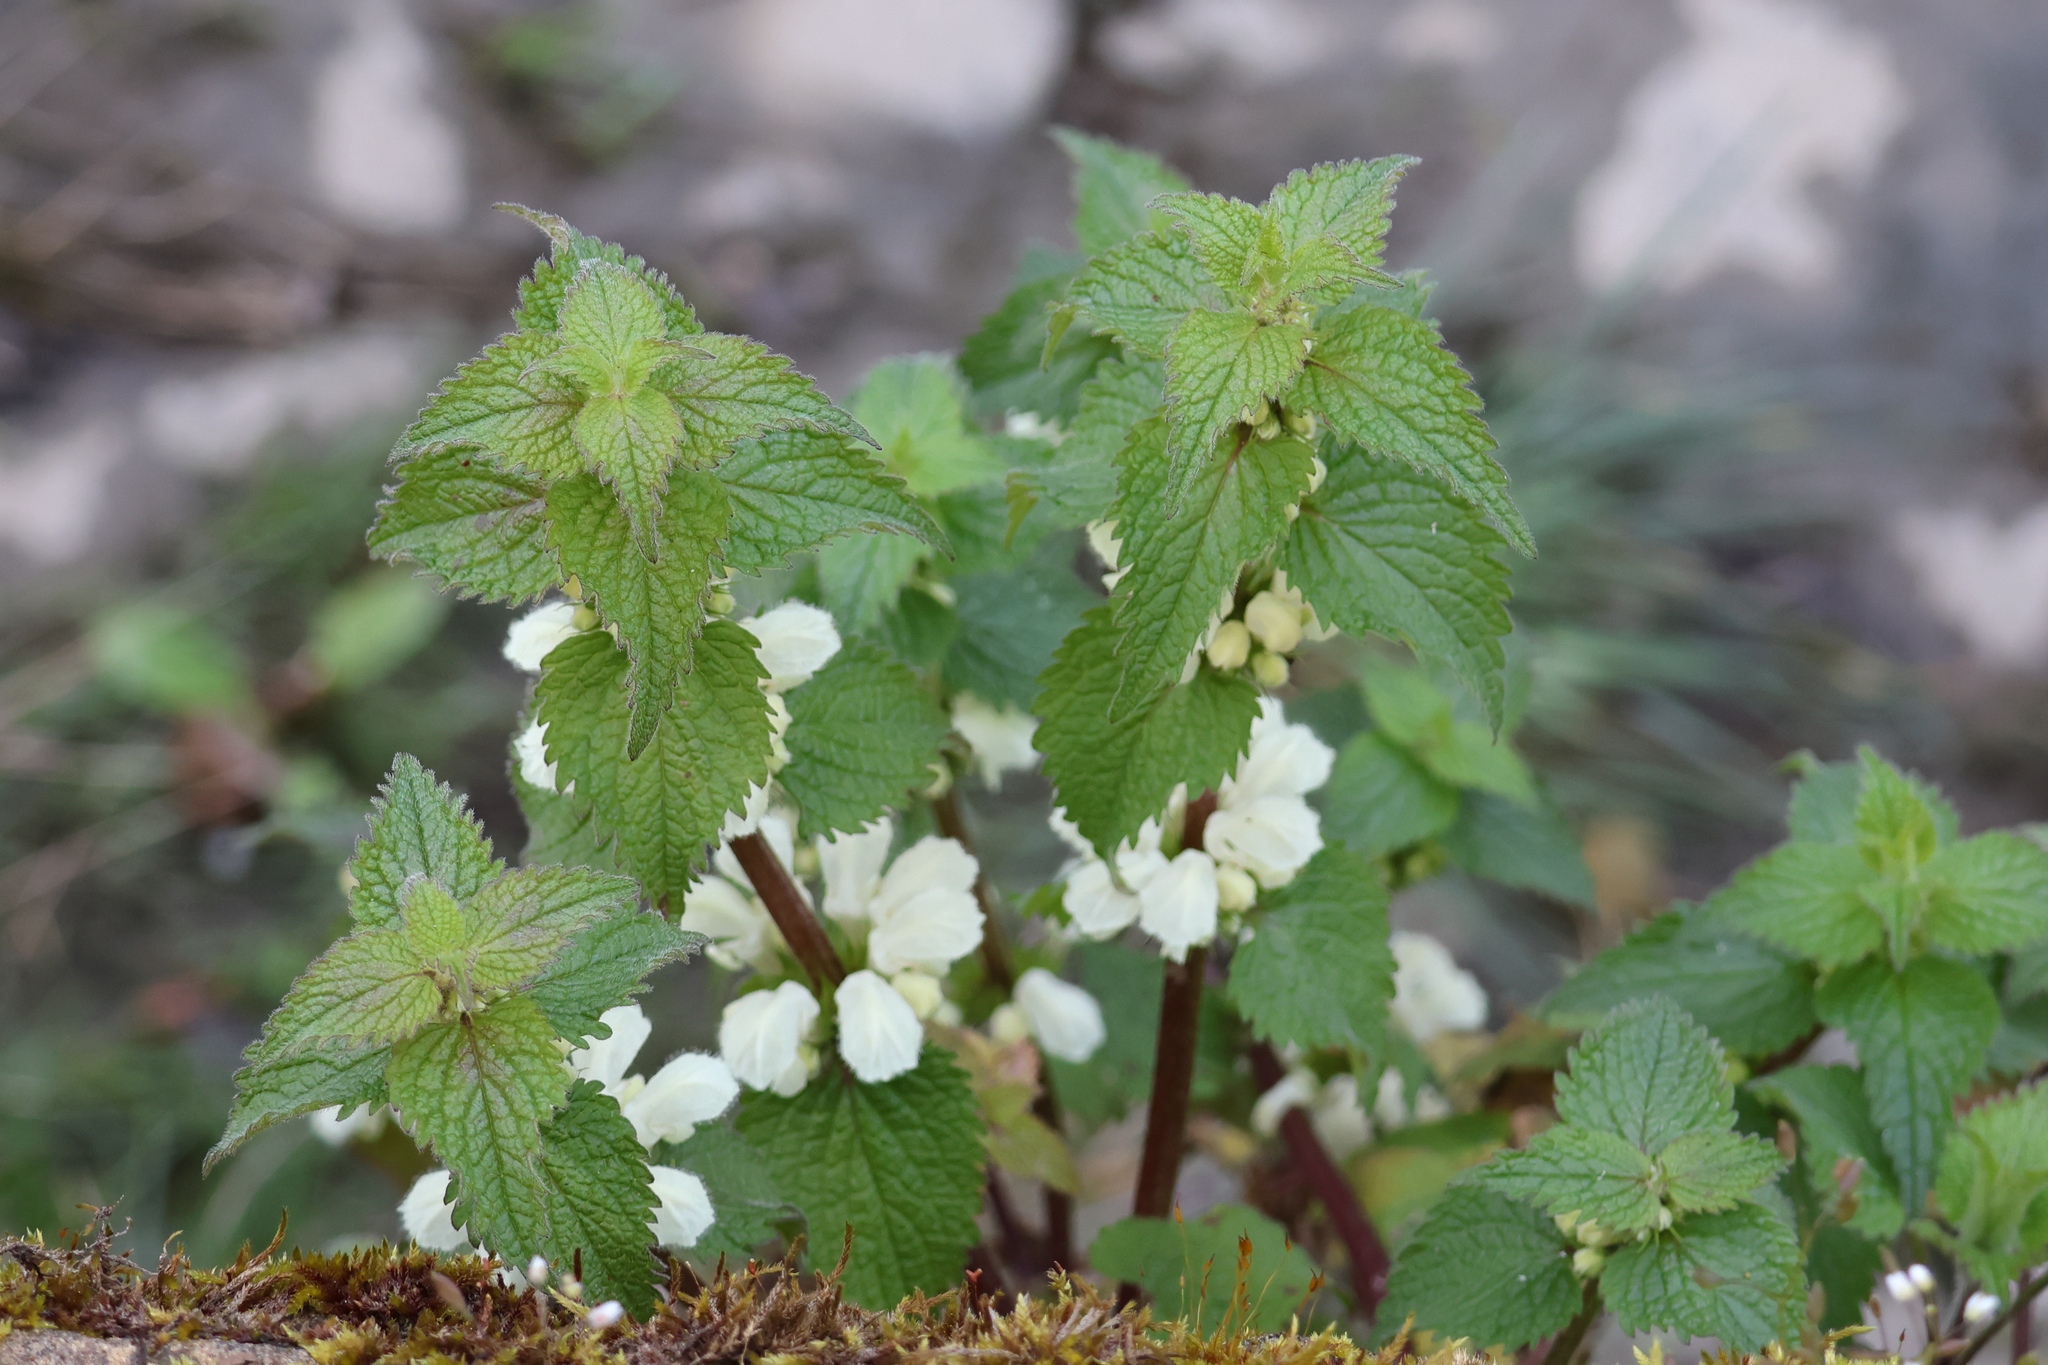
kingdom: Plantae
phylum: Tracheophyta
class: Magnoliopsida
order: Lamiales
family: Lamiaceae
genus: Lamium
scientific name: Lamium album
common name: White dead-nettle
